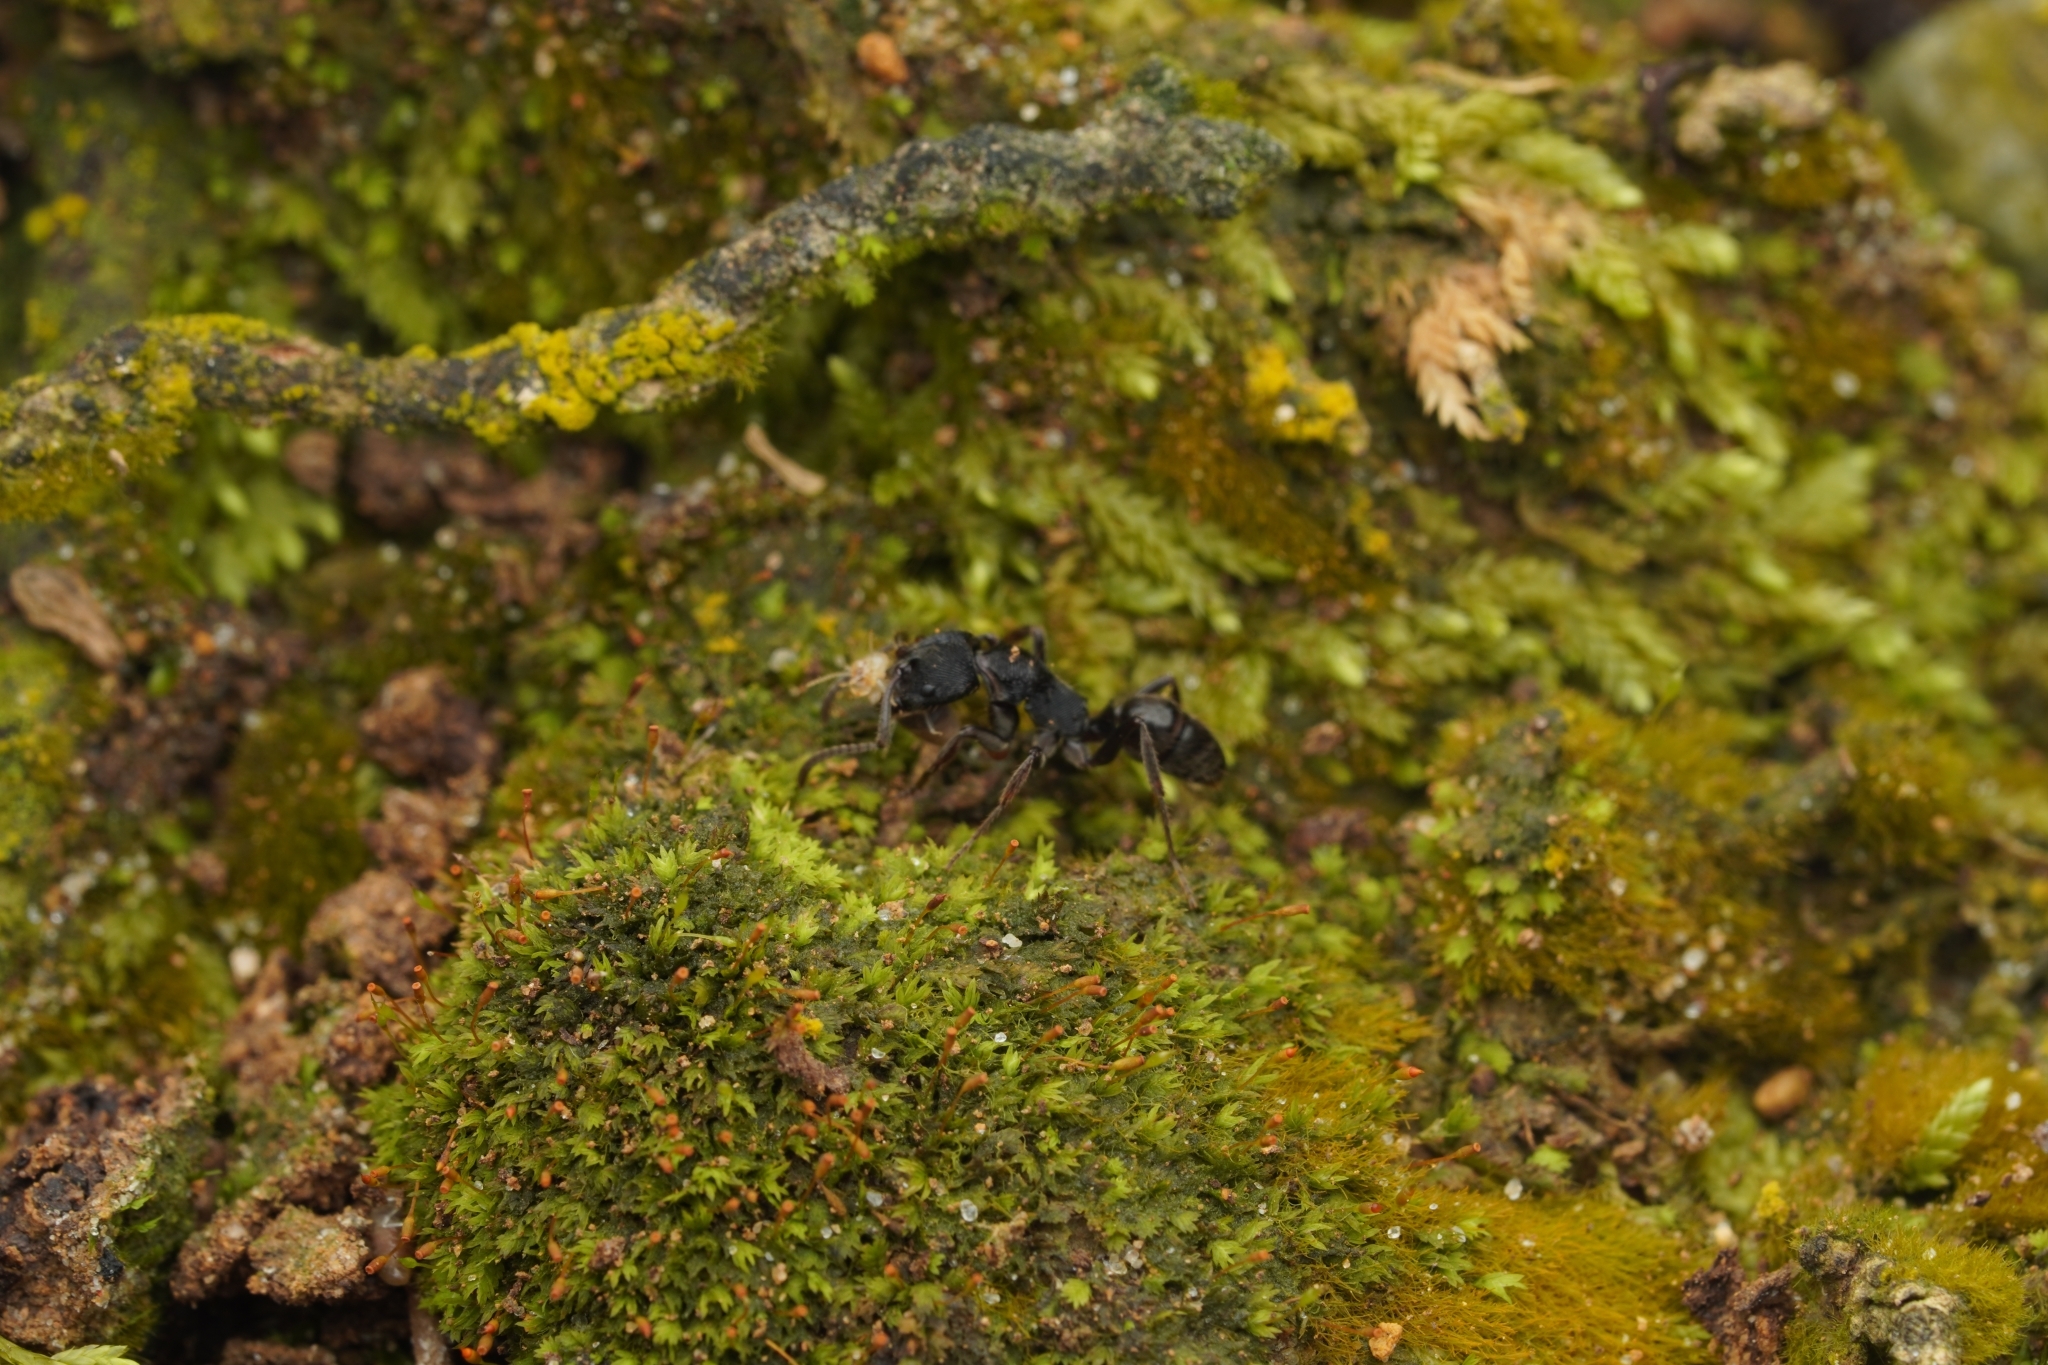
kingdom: Animalia
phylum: Arthropoda
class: Insecta
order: Hymenoptera
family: Formicidae
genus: Odontoponera
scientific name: Odontoponera denticulata
